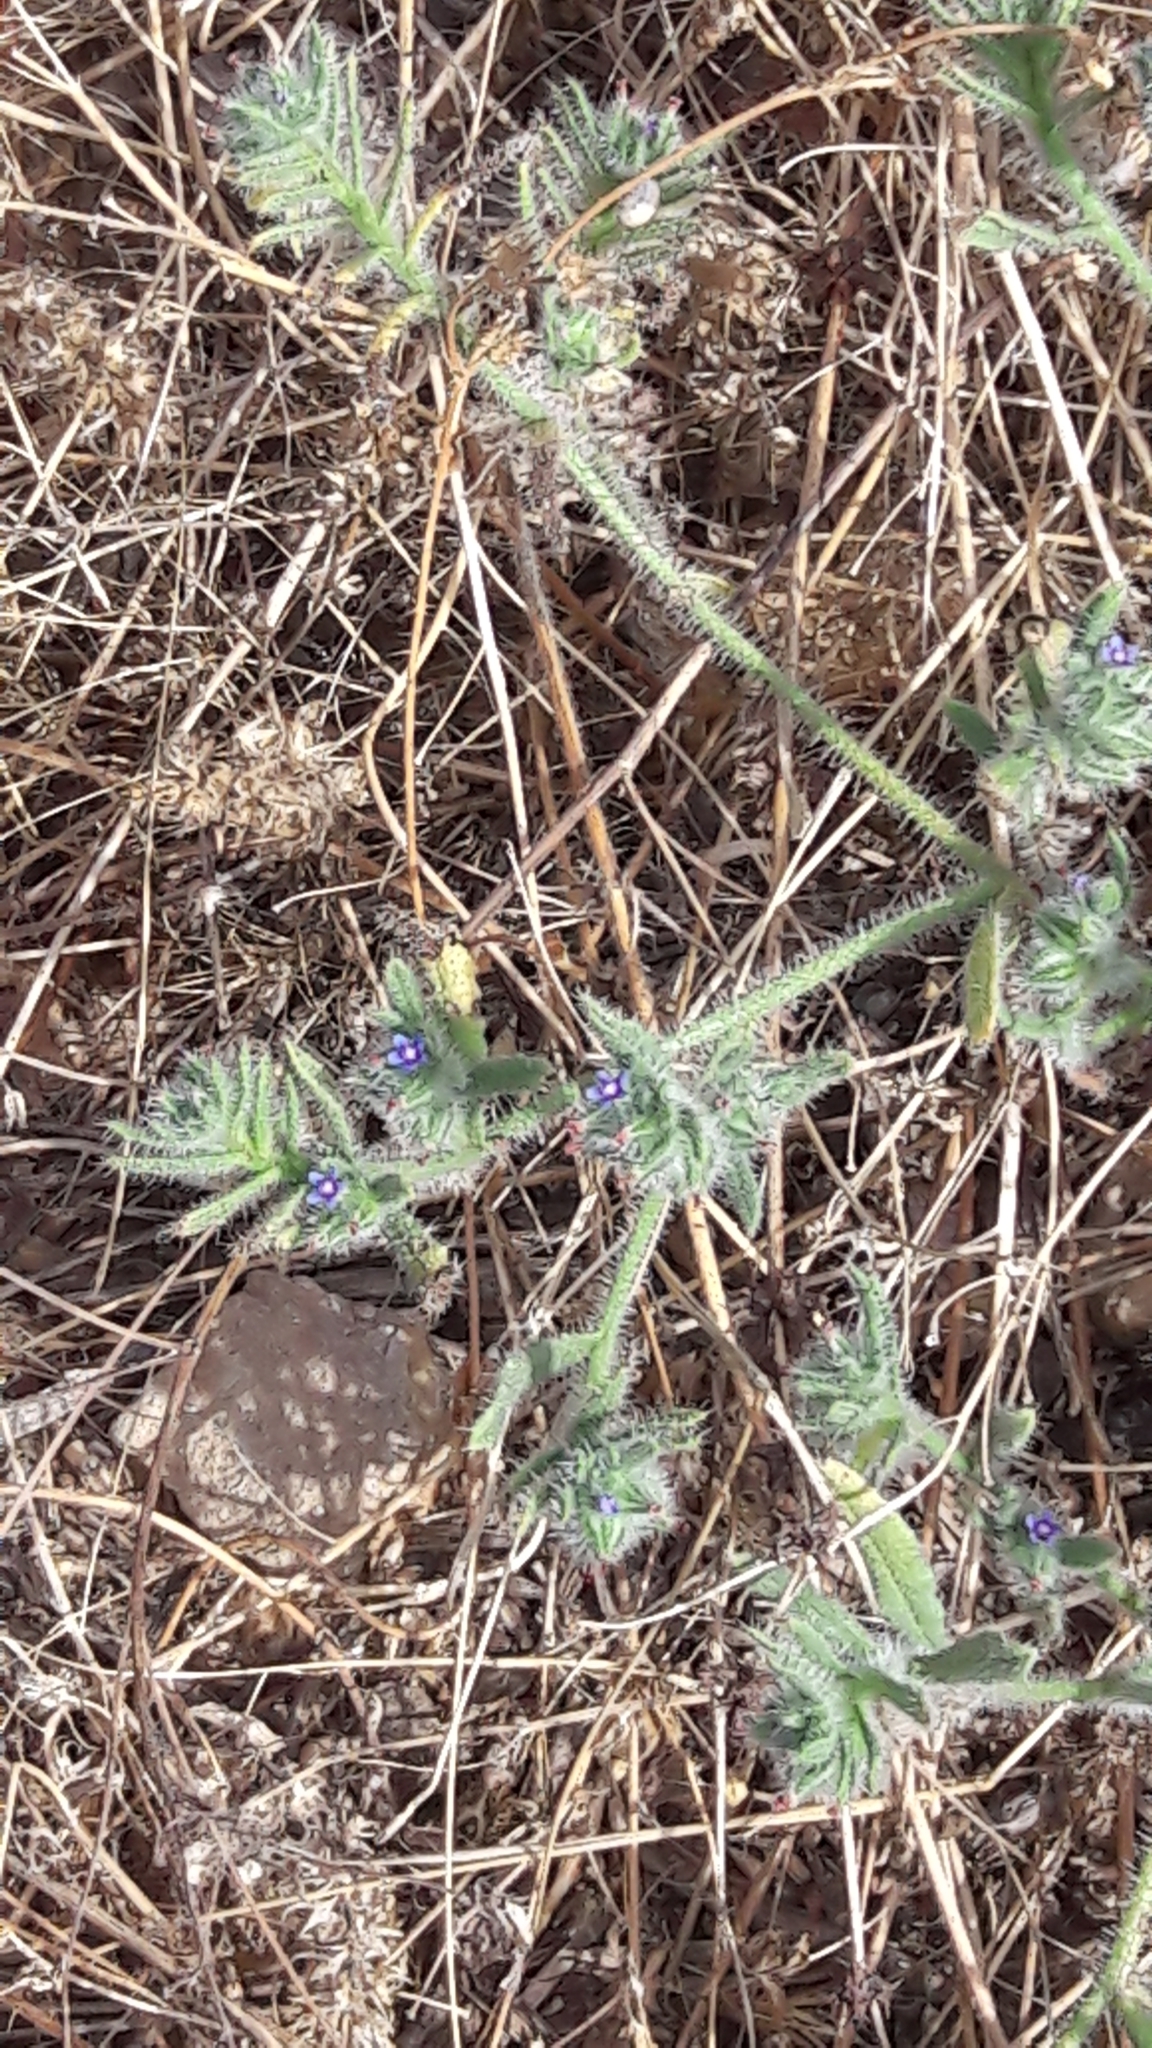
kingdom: Plantae
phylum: Tracheophyta
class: Magnoliopsida
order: Boraginales
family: Boraginaceae
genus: Hormuzakia
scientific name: Hormuzakia aggregata
